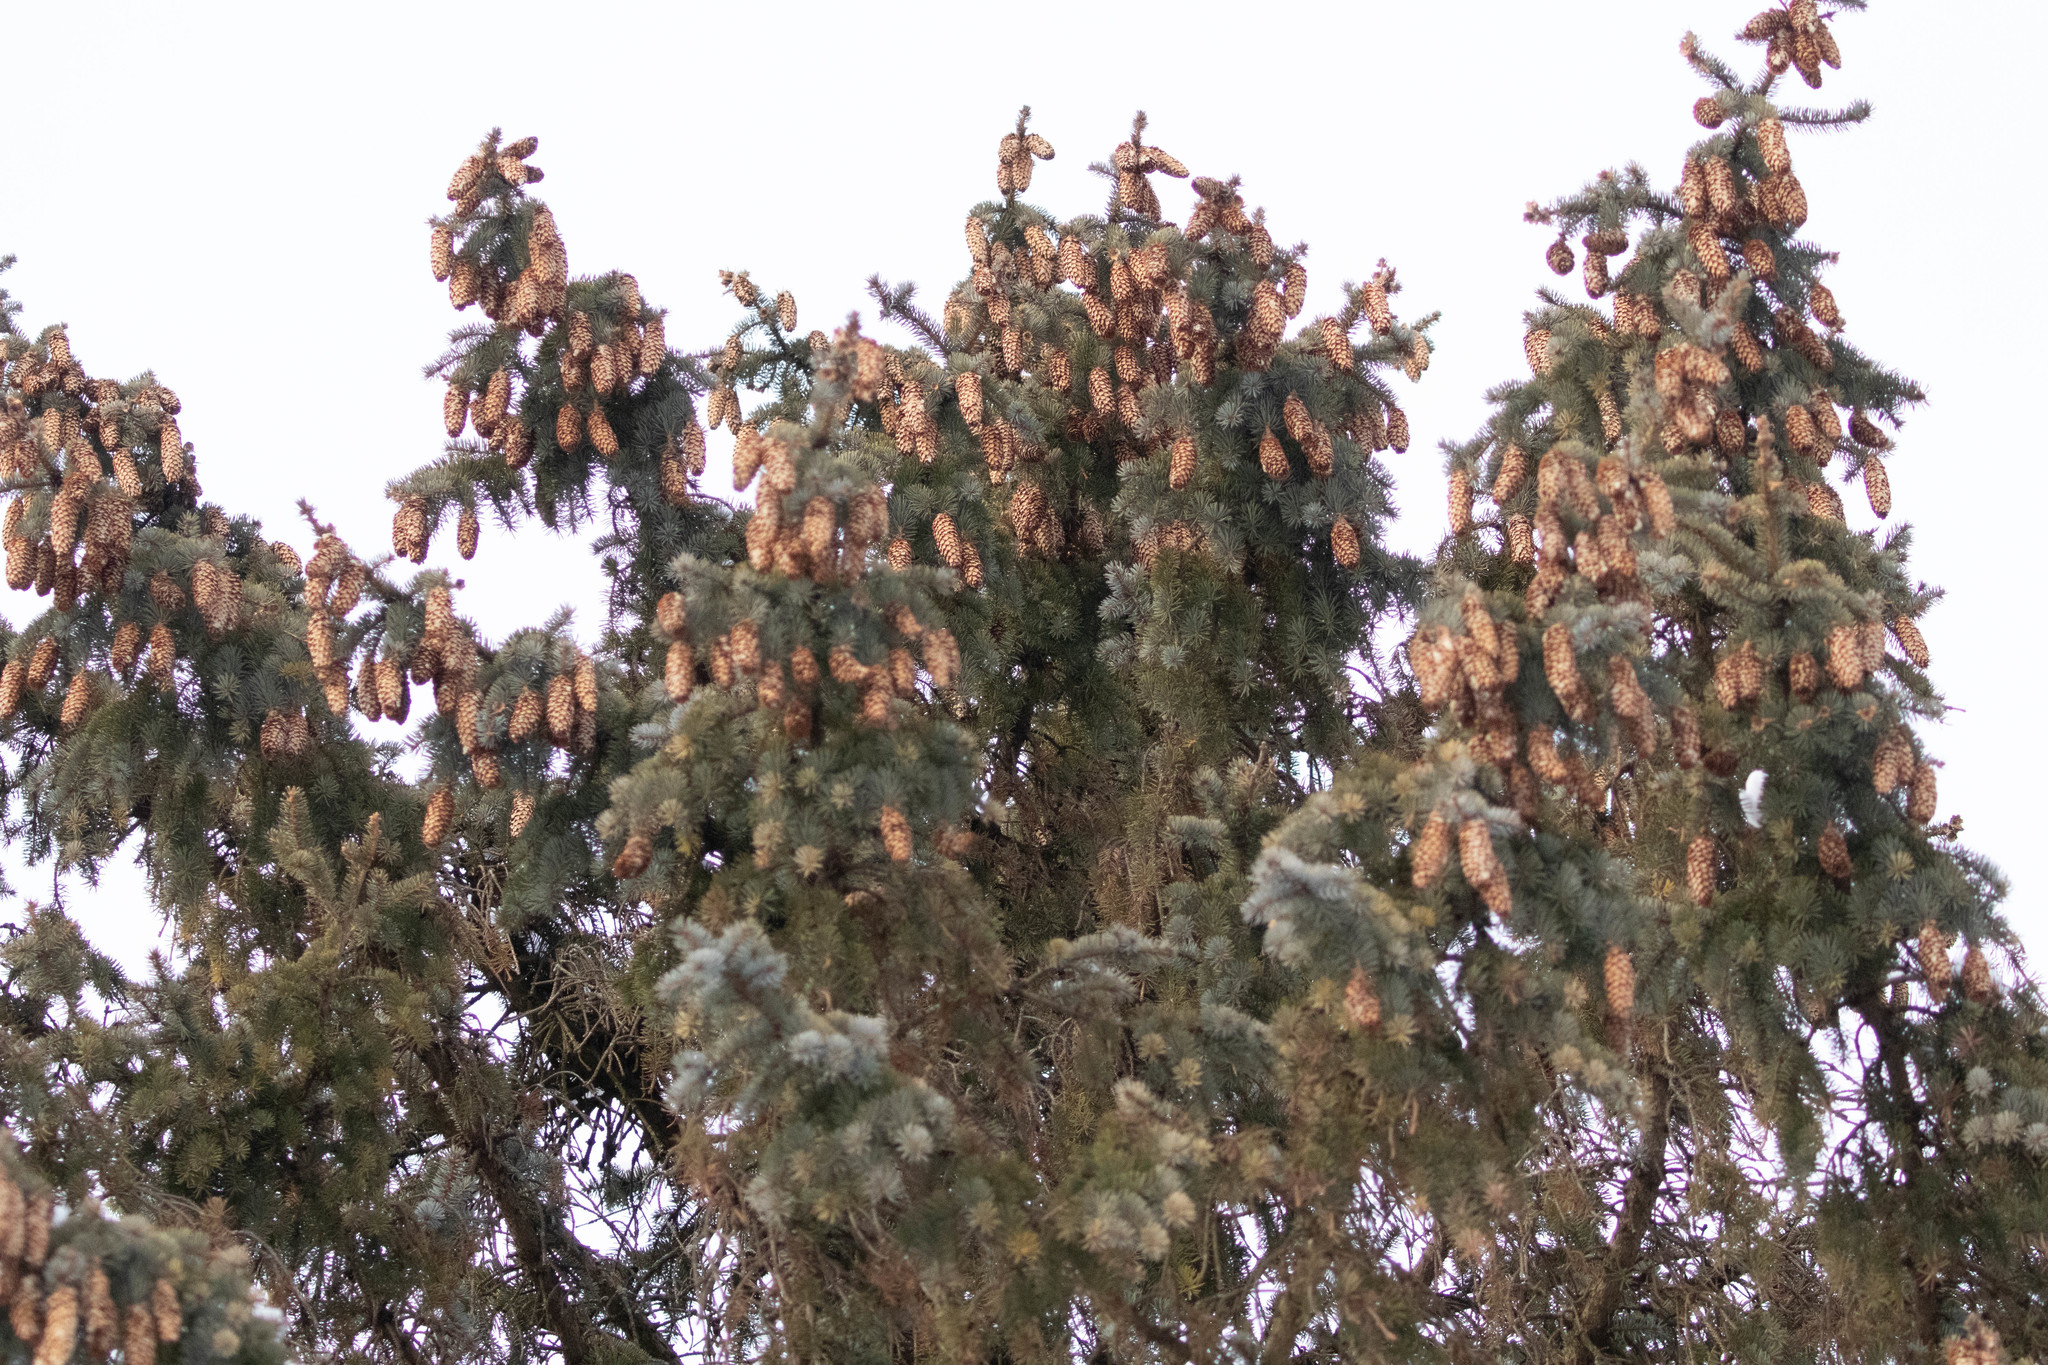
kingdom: Plantae
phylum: Tracheophyta
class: Pinopsida
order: Pinales
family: Pinaceae
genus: Picea
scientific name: Picea pungens
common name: Colorado spruce
